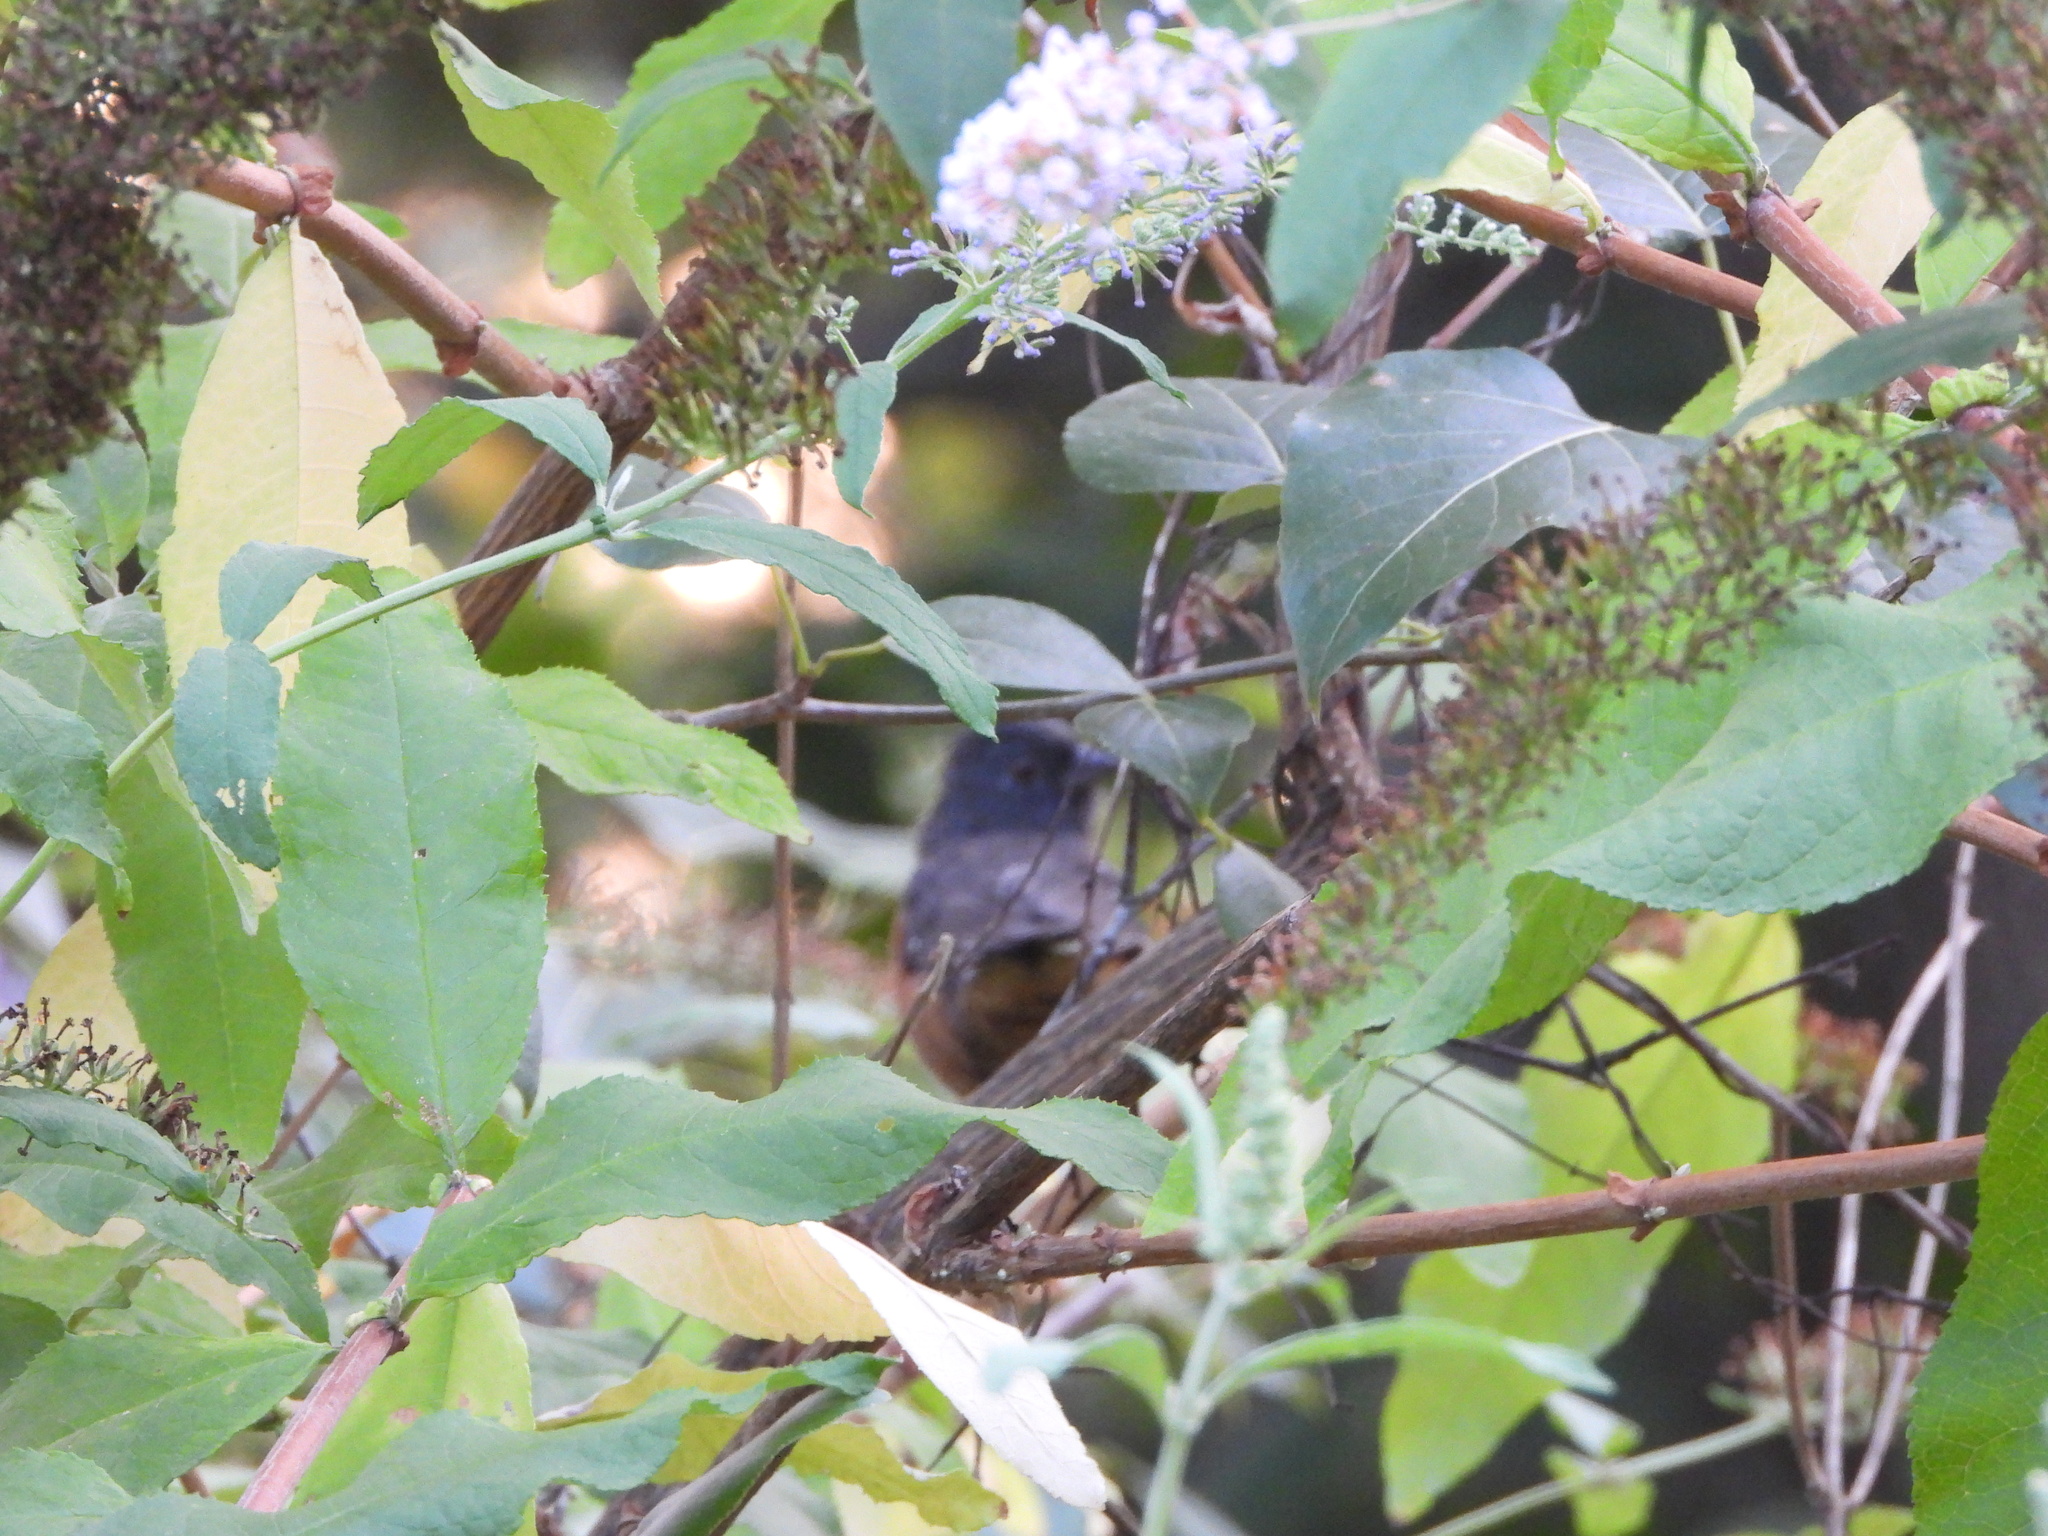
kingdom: Animalia
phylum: Chordata
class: Aves
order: Passeriformes
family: Passerellidae
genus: Pipilo
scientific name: Pipilo maculatus
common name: Spotted towhee
